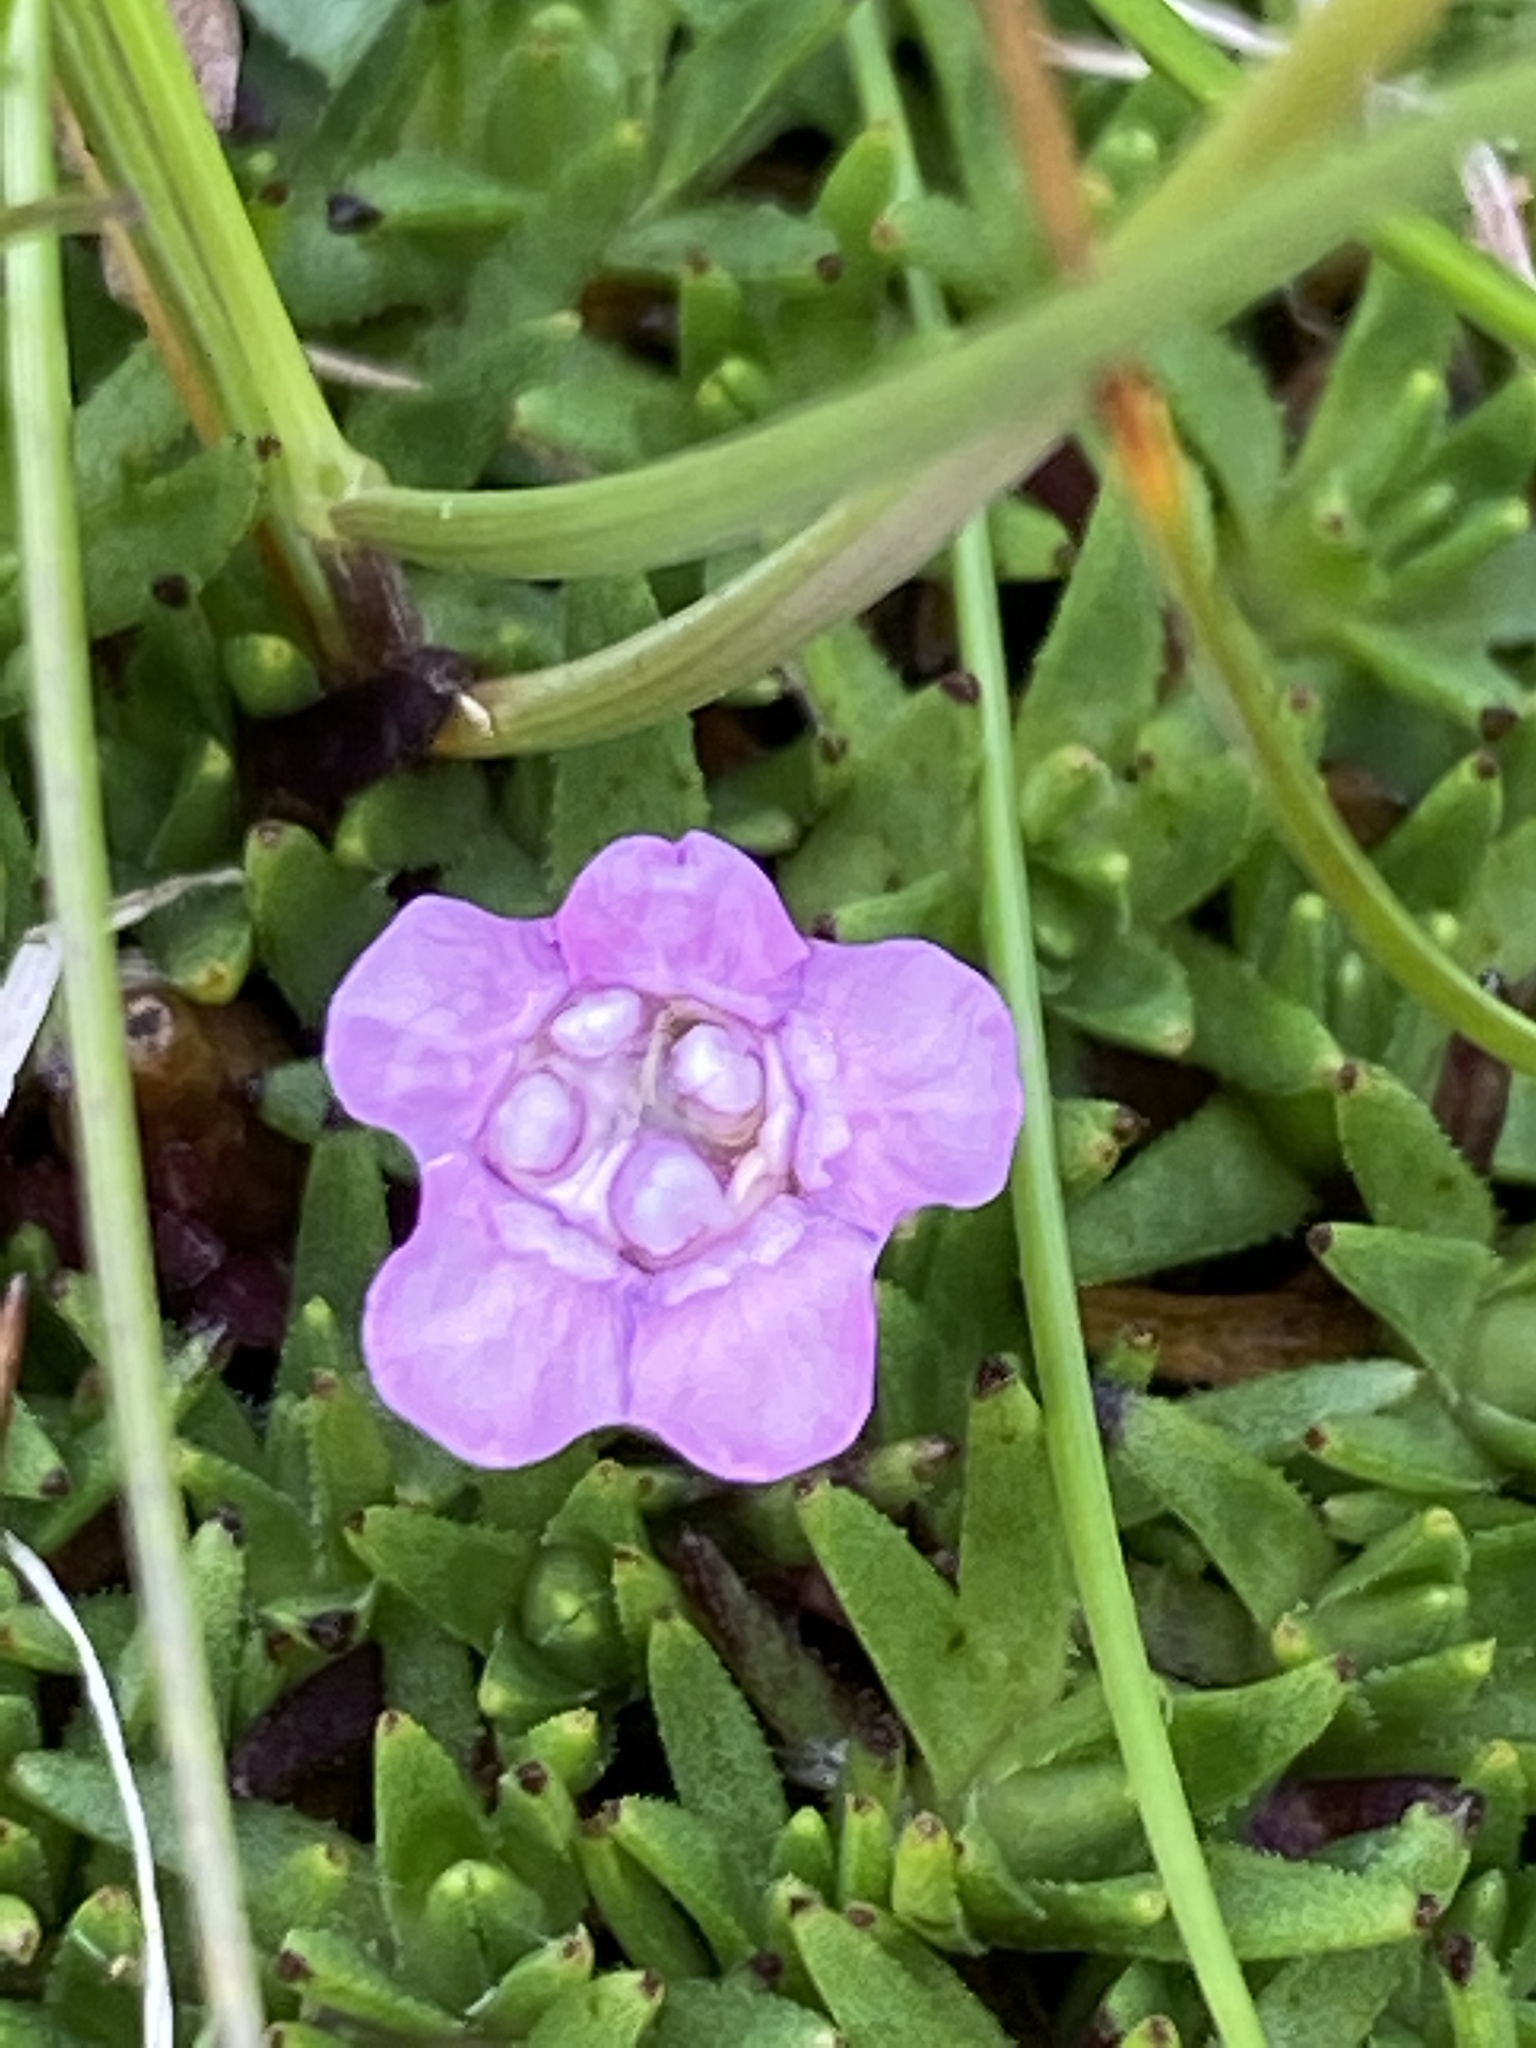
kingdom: Plantae
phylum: Tracheophyta
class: Magnoliopsida
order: Caryophyllales
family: Caryophyllaceae
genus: Silene
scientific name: Silene acaulis
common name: Moss campion
